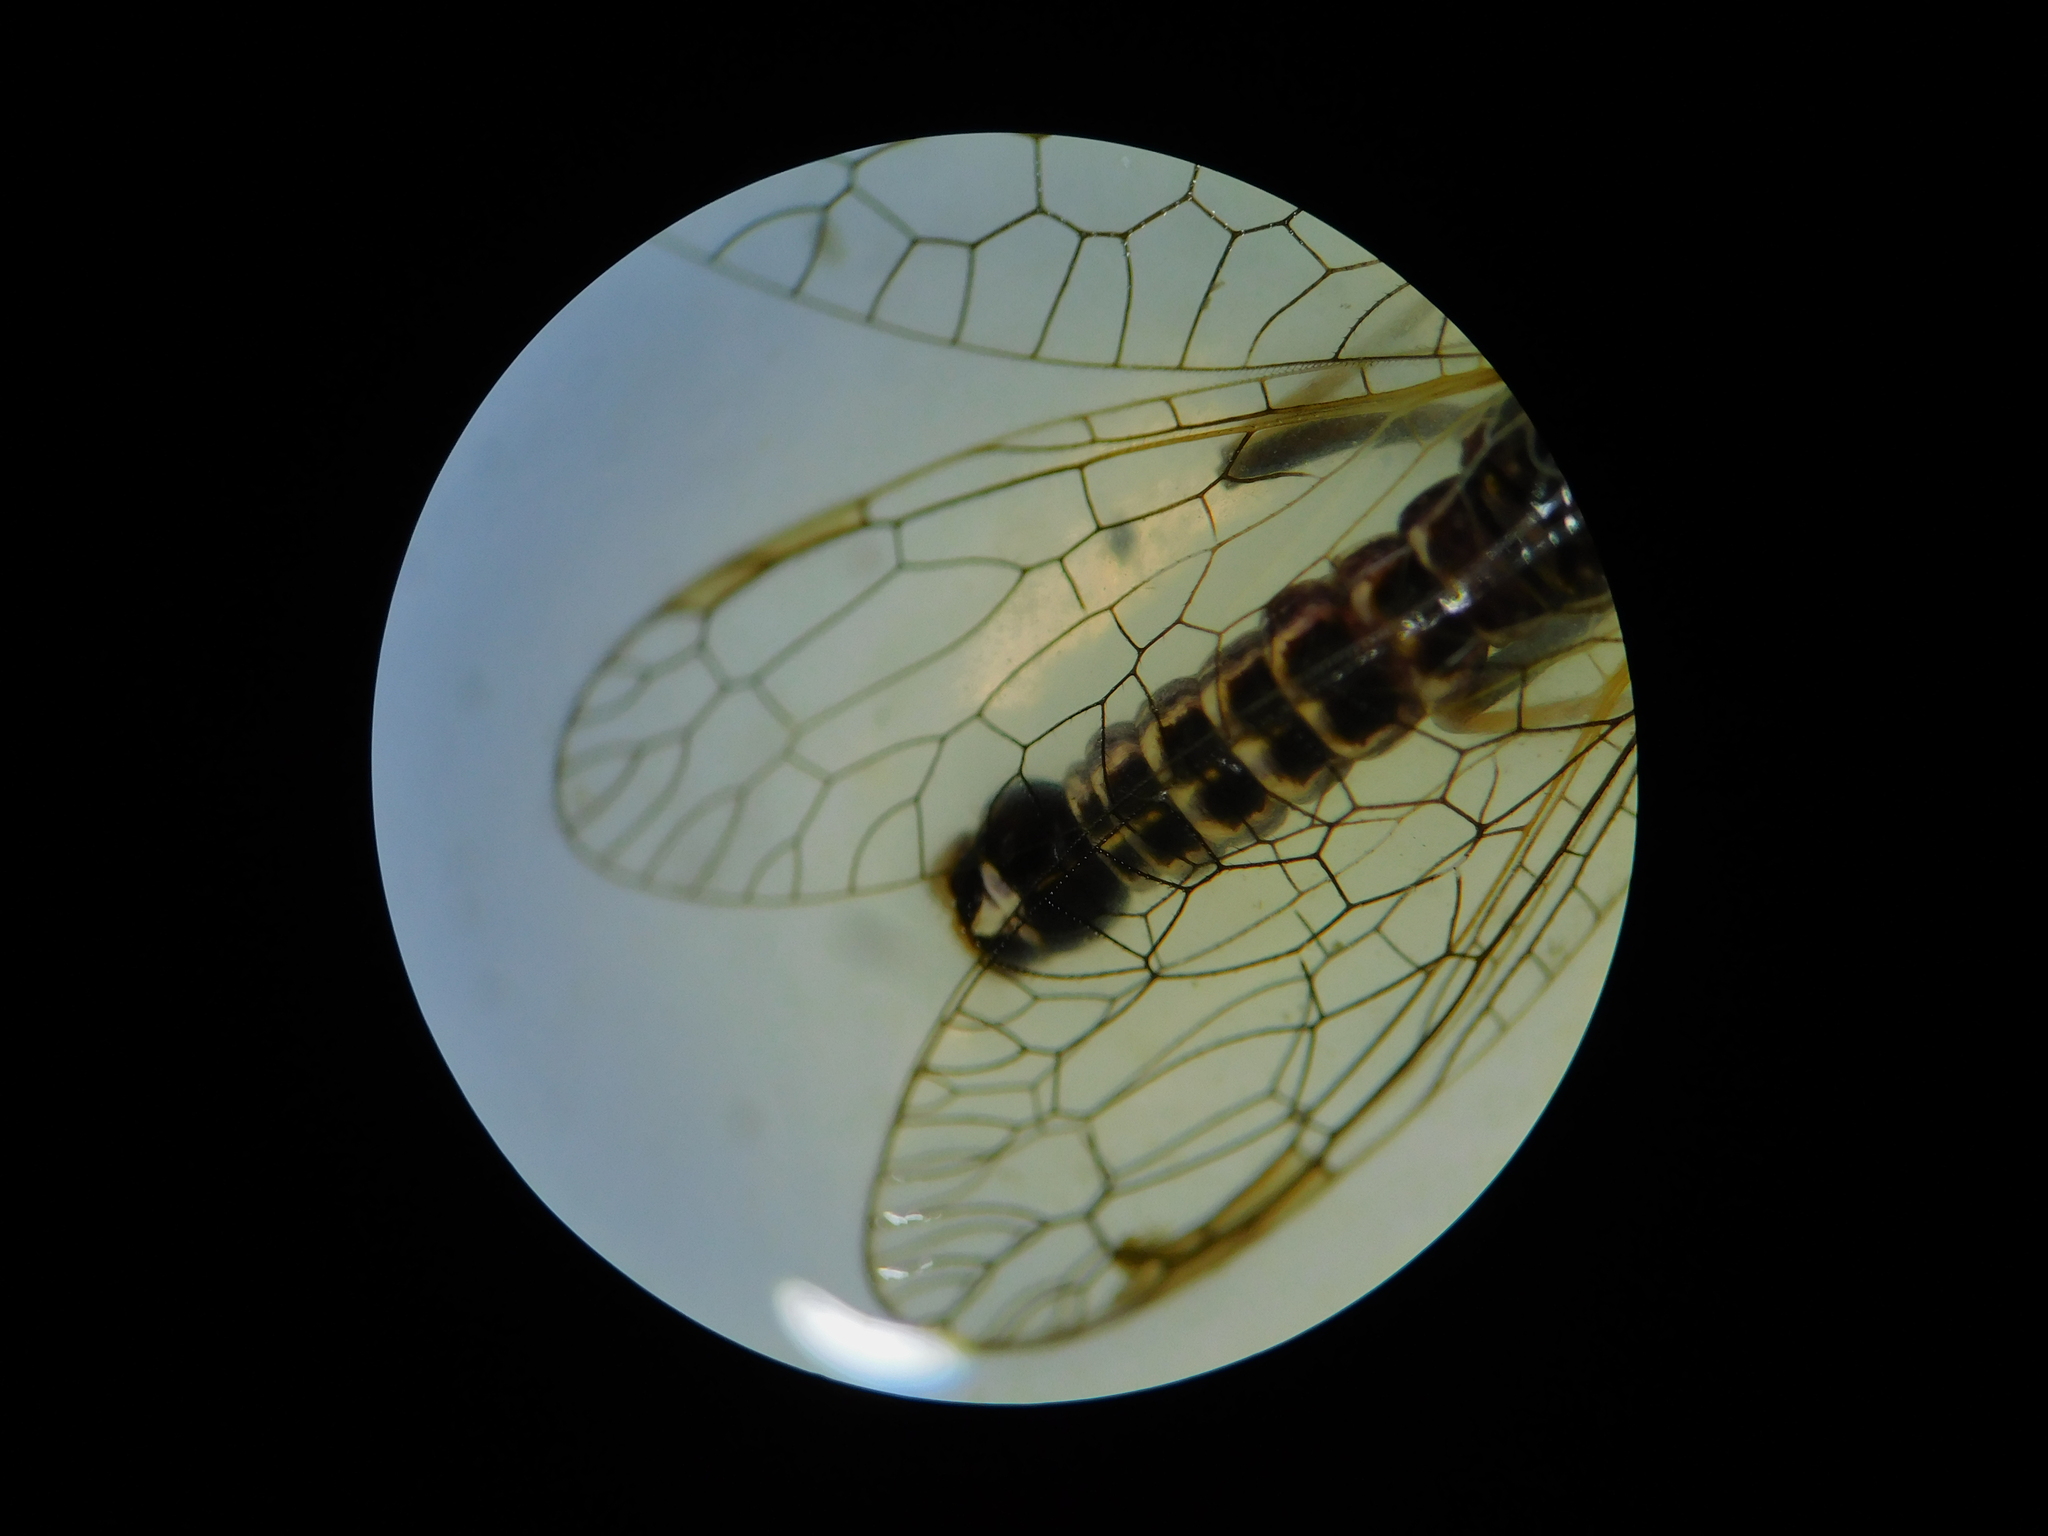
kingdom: Animalia
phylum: Arthropoda
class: Insecta
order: Raphidioptera
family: Raphidiidae
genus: Xanthostigma
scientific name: Xanthostigma xanthostigma
